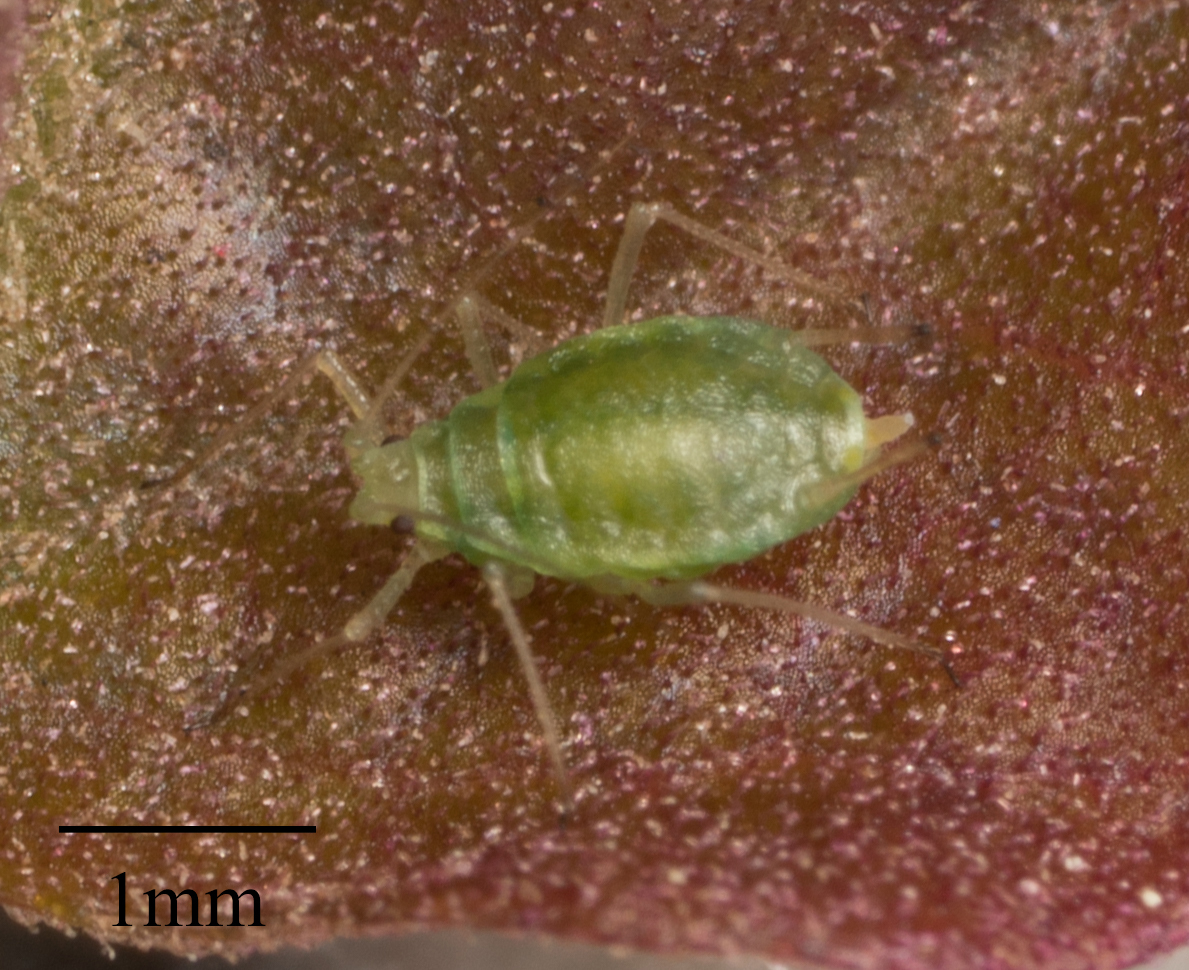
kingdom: Animalia
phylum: Arthropoda
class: Insecta
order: Hemiptera
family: Aphididae
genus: Myzus
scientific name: Myzus persicae
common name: Green peach aphid
